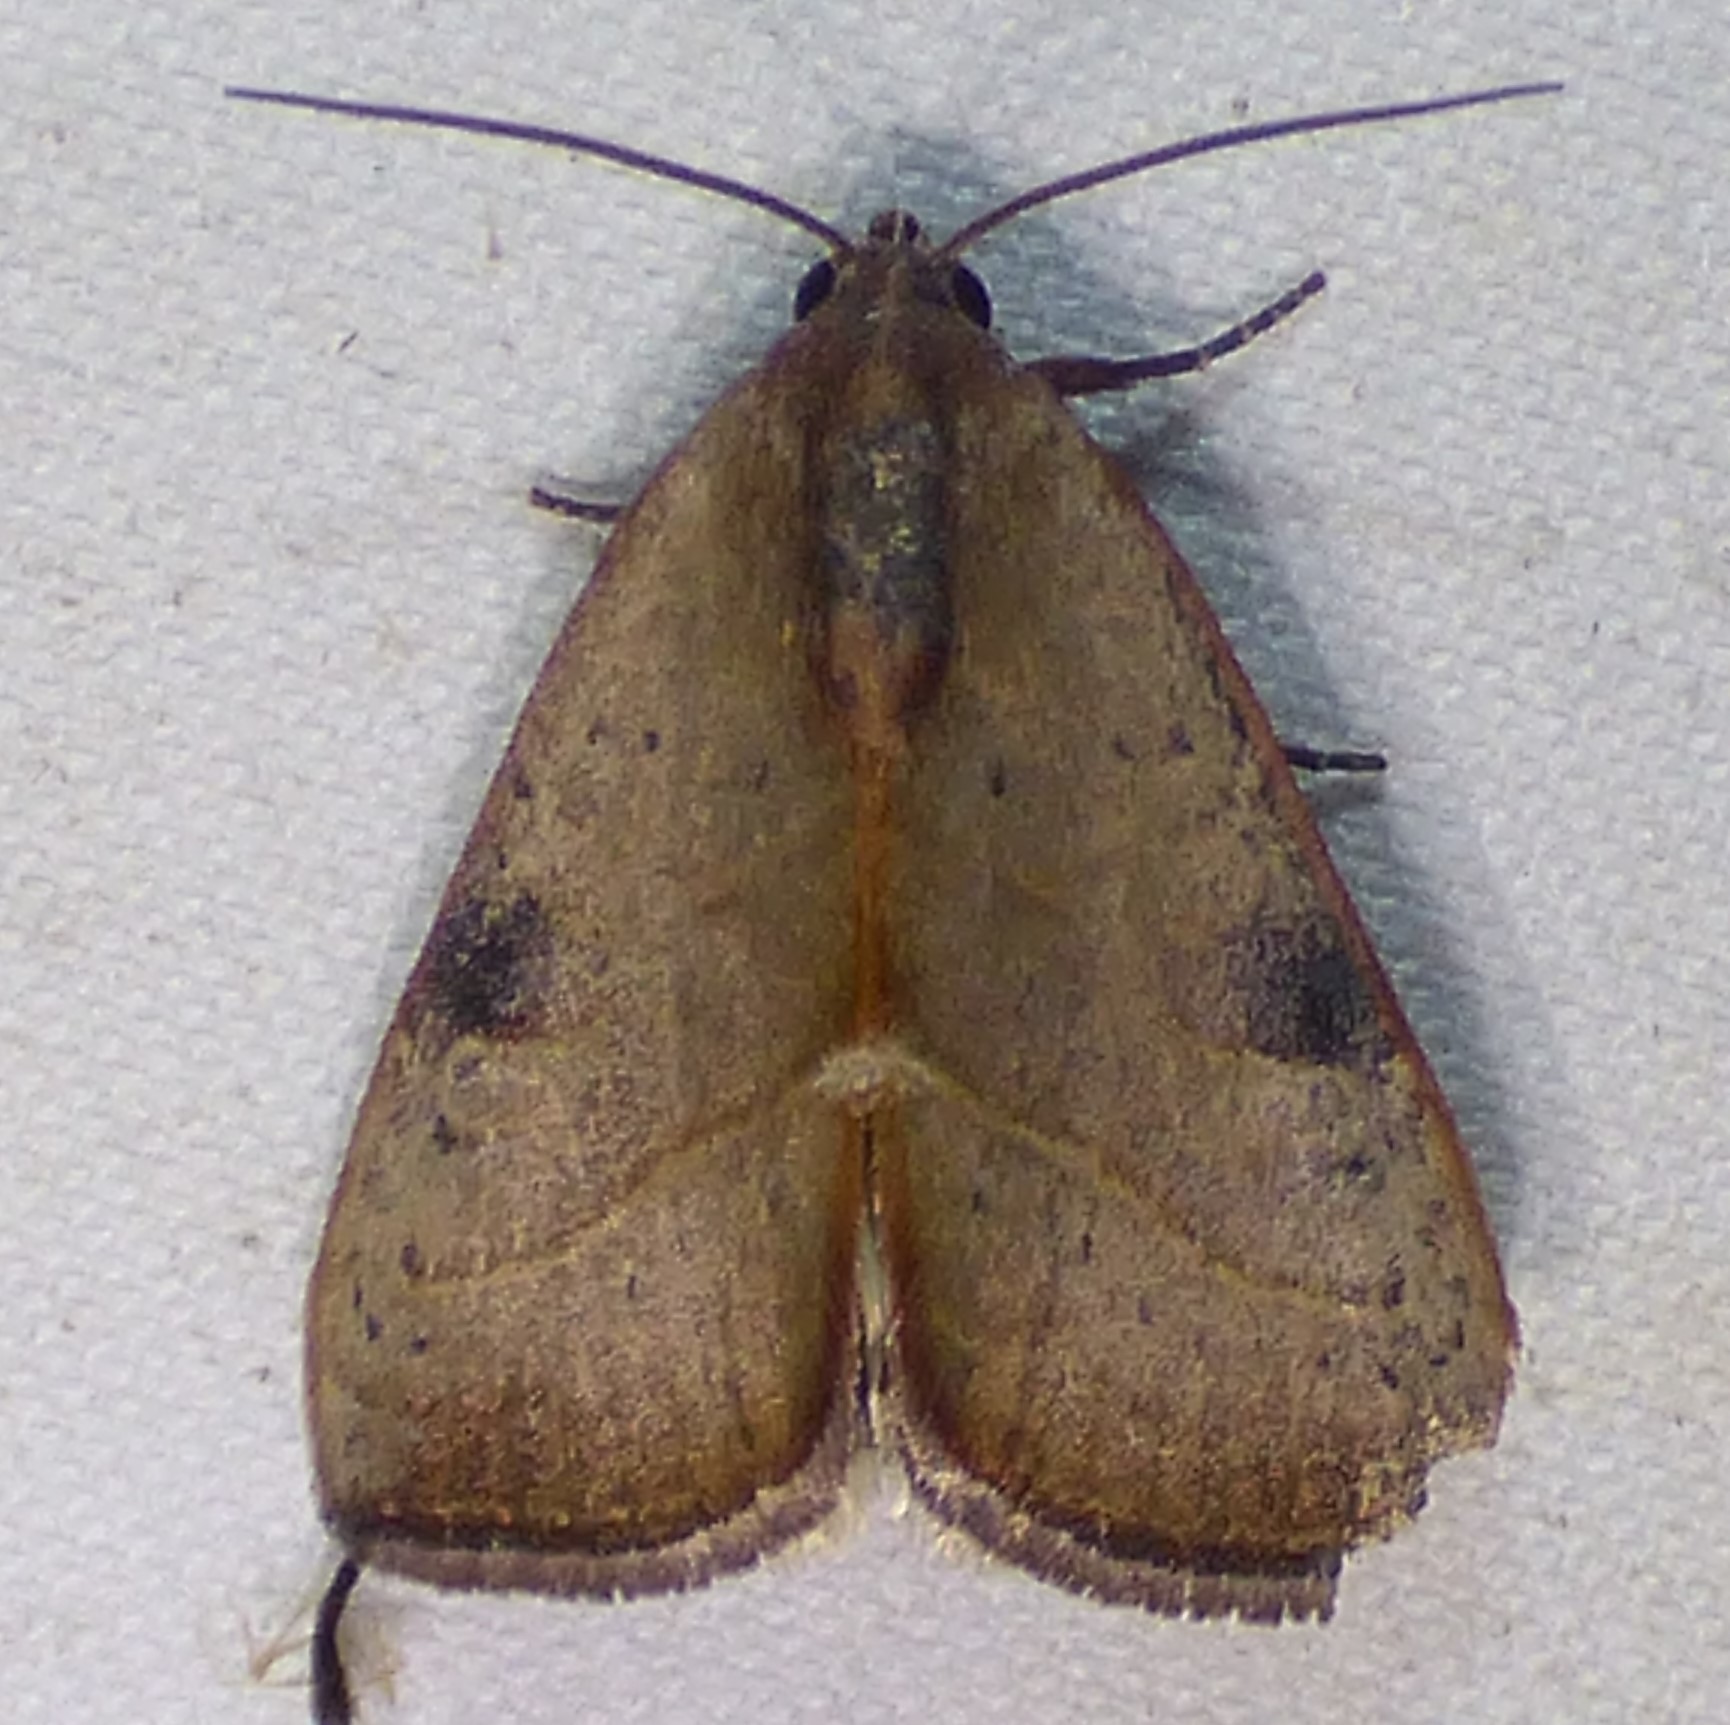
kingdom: Animalia
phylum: Arthropoda
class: Insecta
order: Lepidoptera
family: Noctuidae
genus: Galgula
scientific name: Galgula partita
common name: Wedgeling
